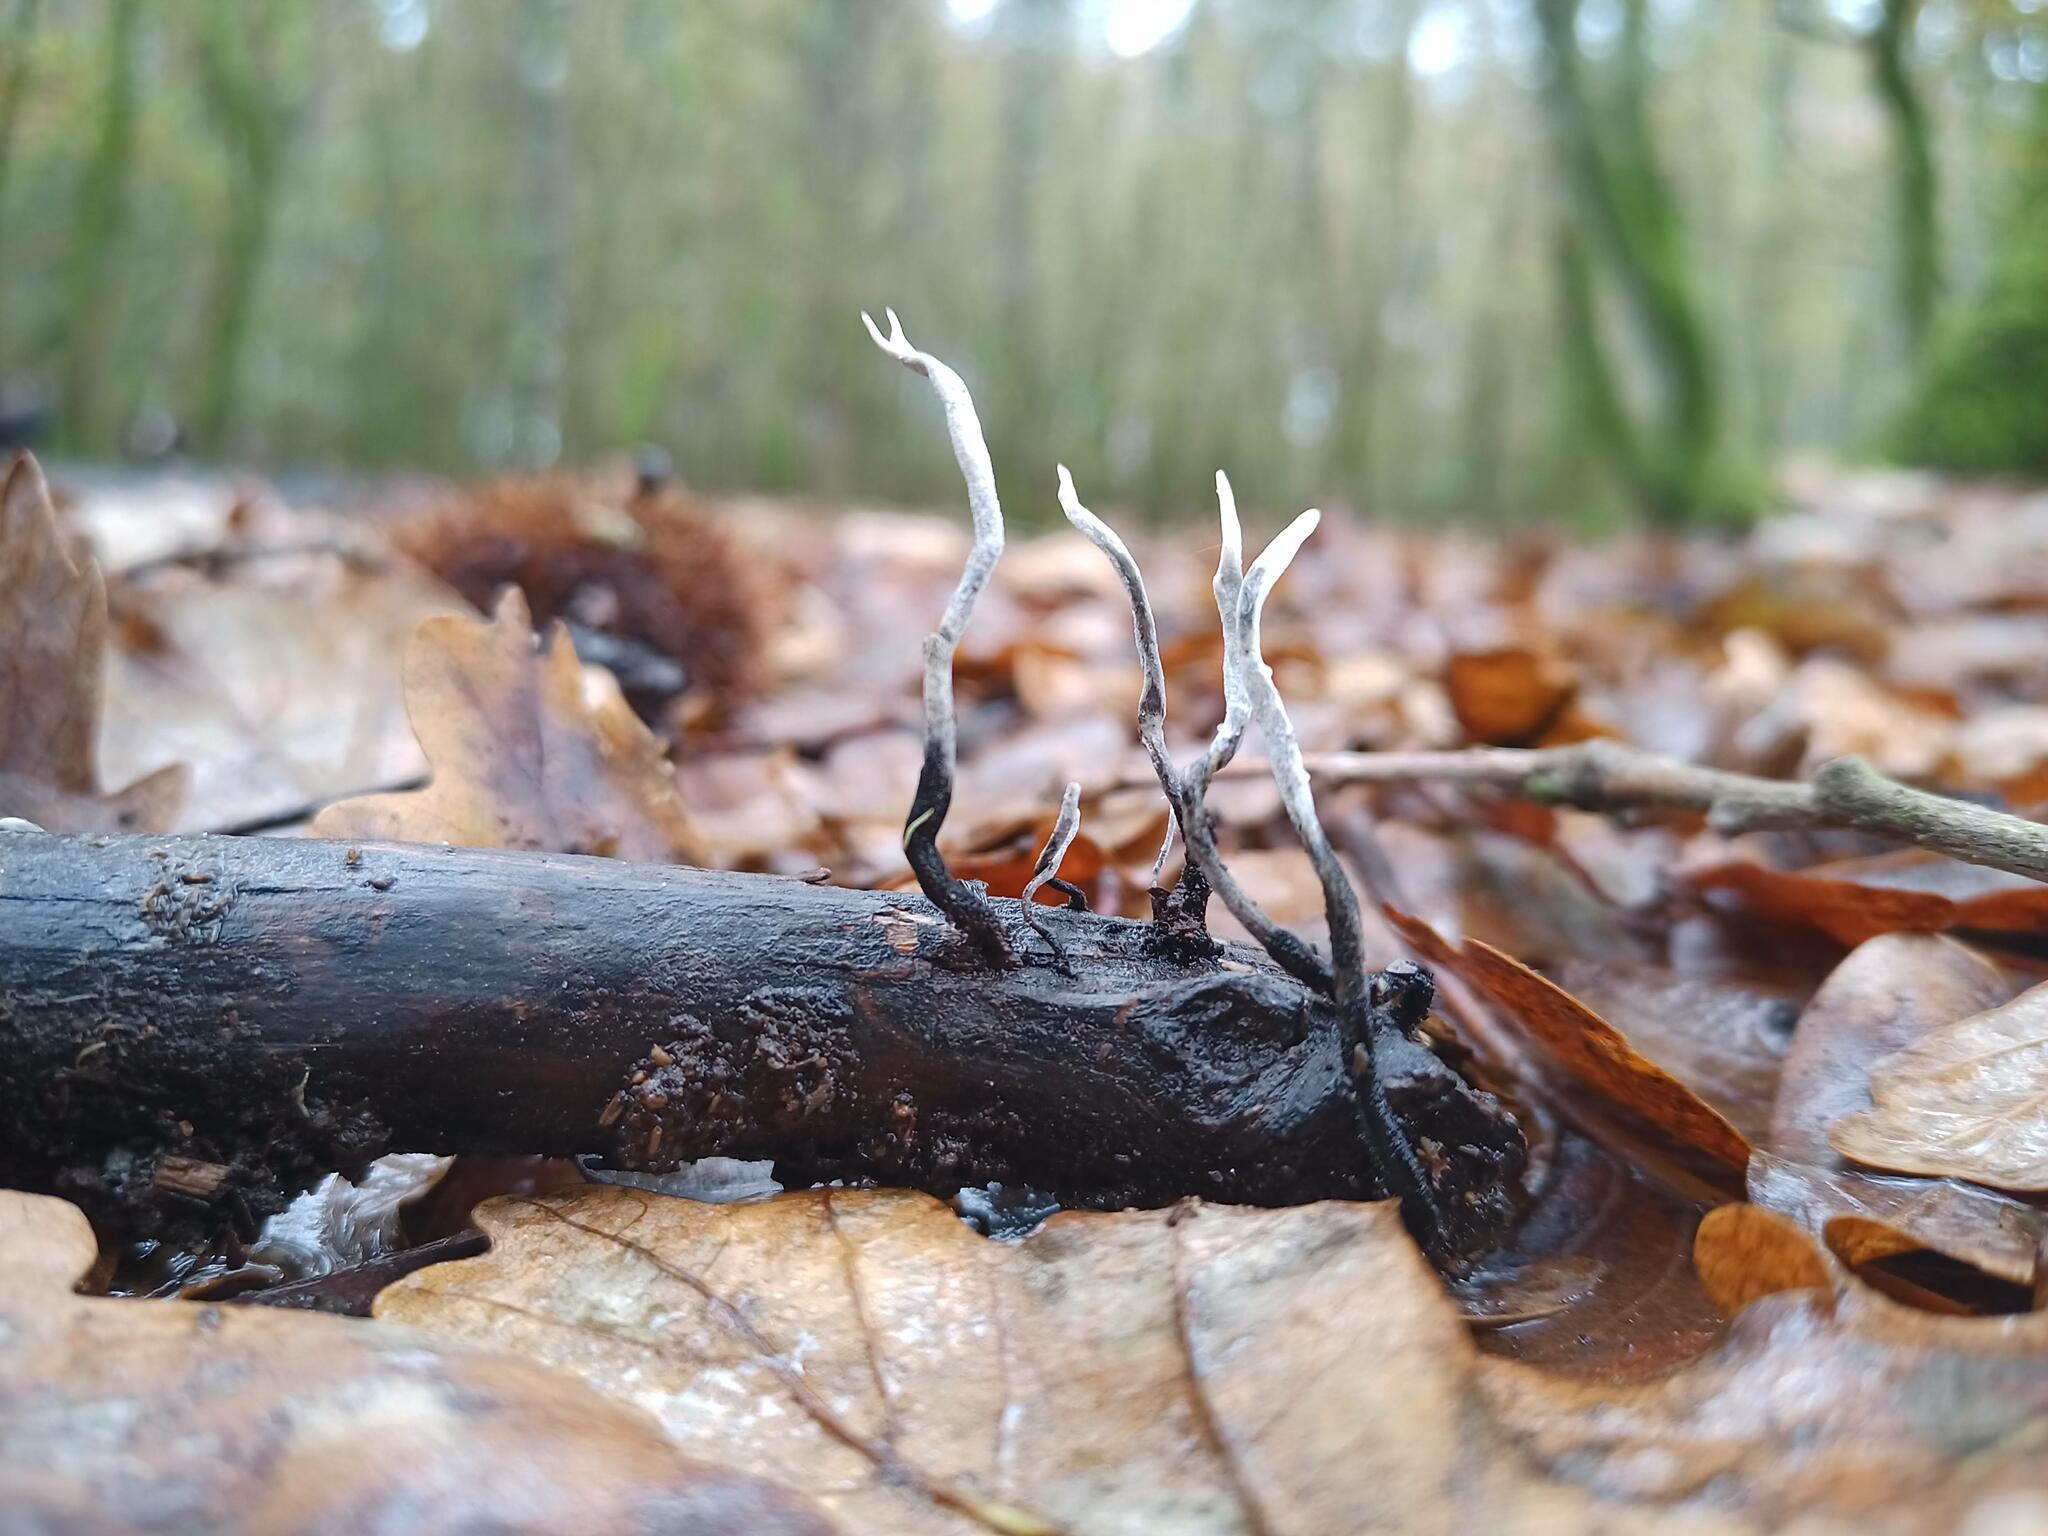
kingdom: Fungi
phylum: Ascomycota
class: Sordariomycetes
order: Xylariales
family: Xylariaceae
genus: Xylaria
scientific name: Xylaria hypoxylon
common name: Candle-snuff fungus
